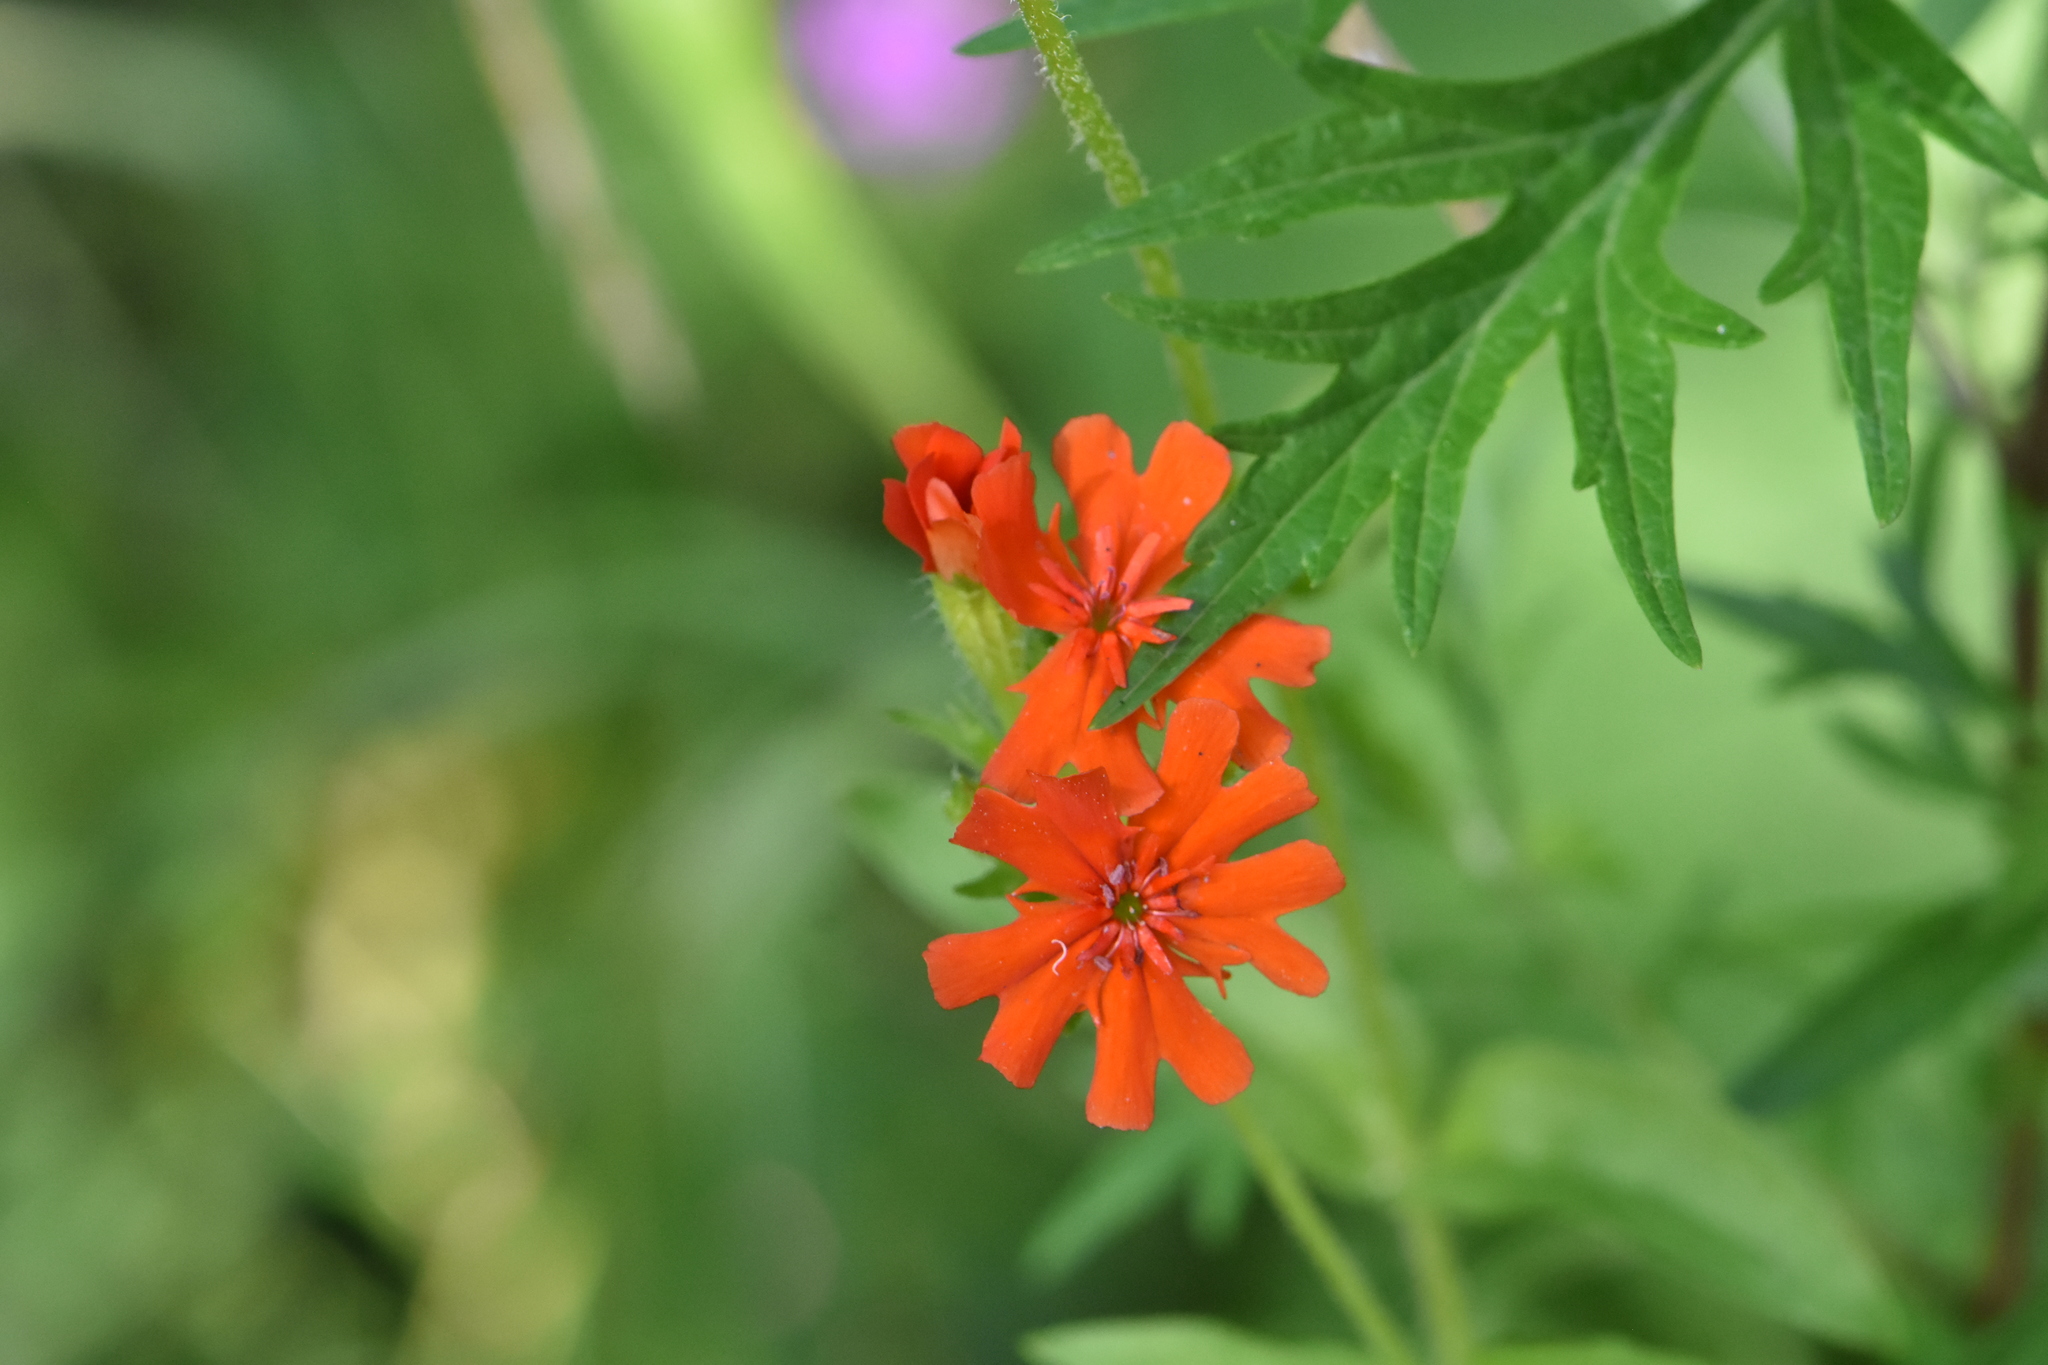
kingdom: Plantae
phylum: Tracheophyta
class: Magnoliopsida
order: Caryophyllales
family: Caryophyllaceae
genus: Silene
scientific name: Silene chalcedonica
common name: Maltese-cross
